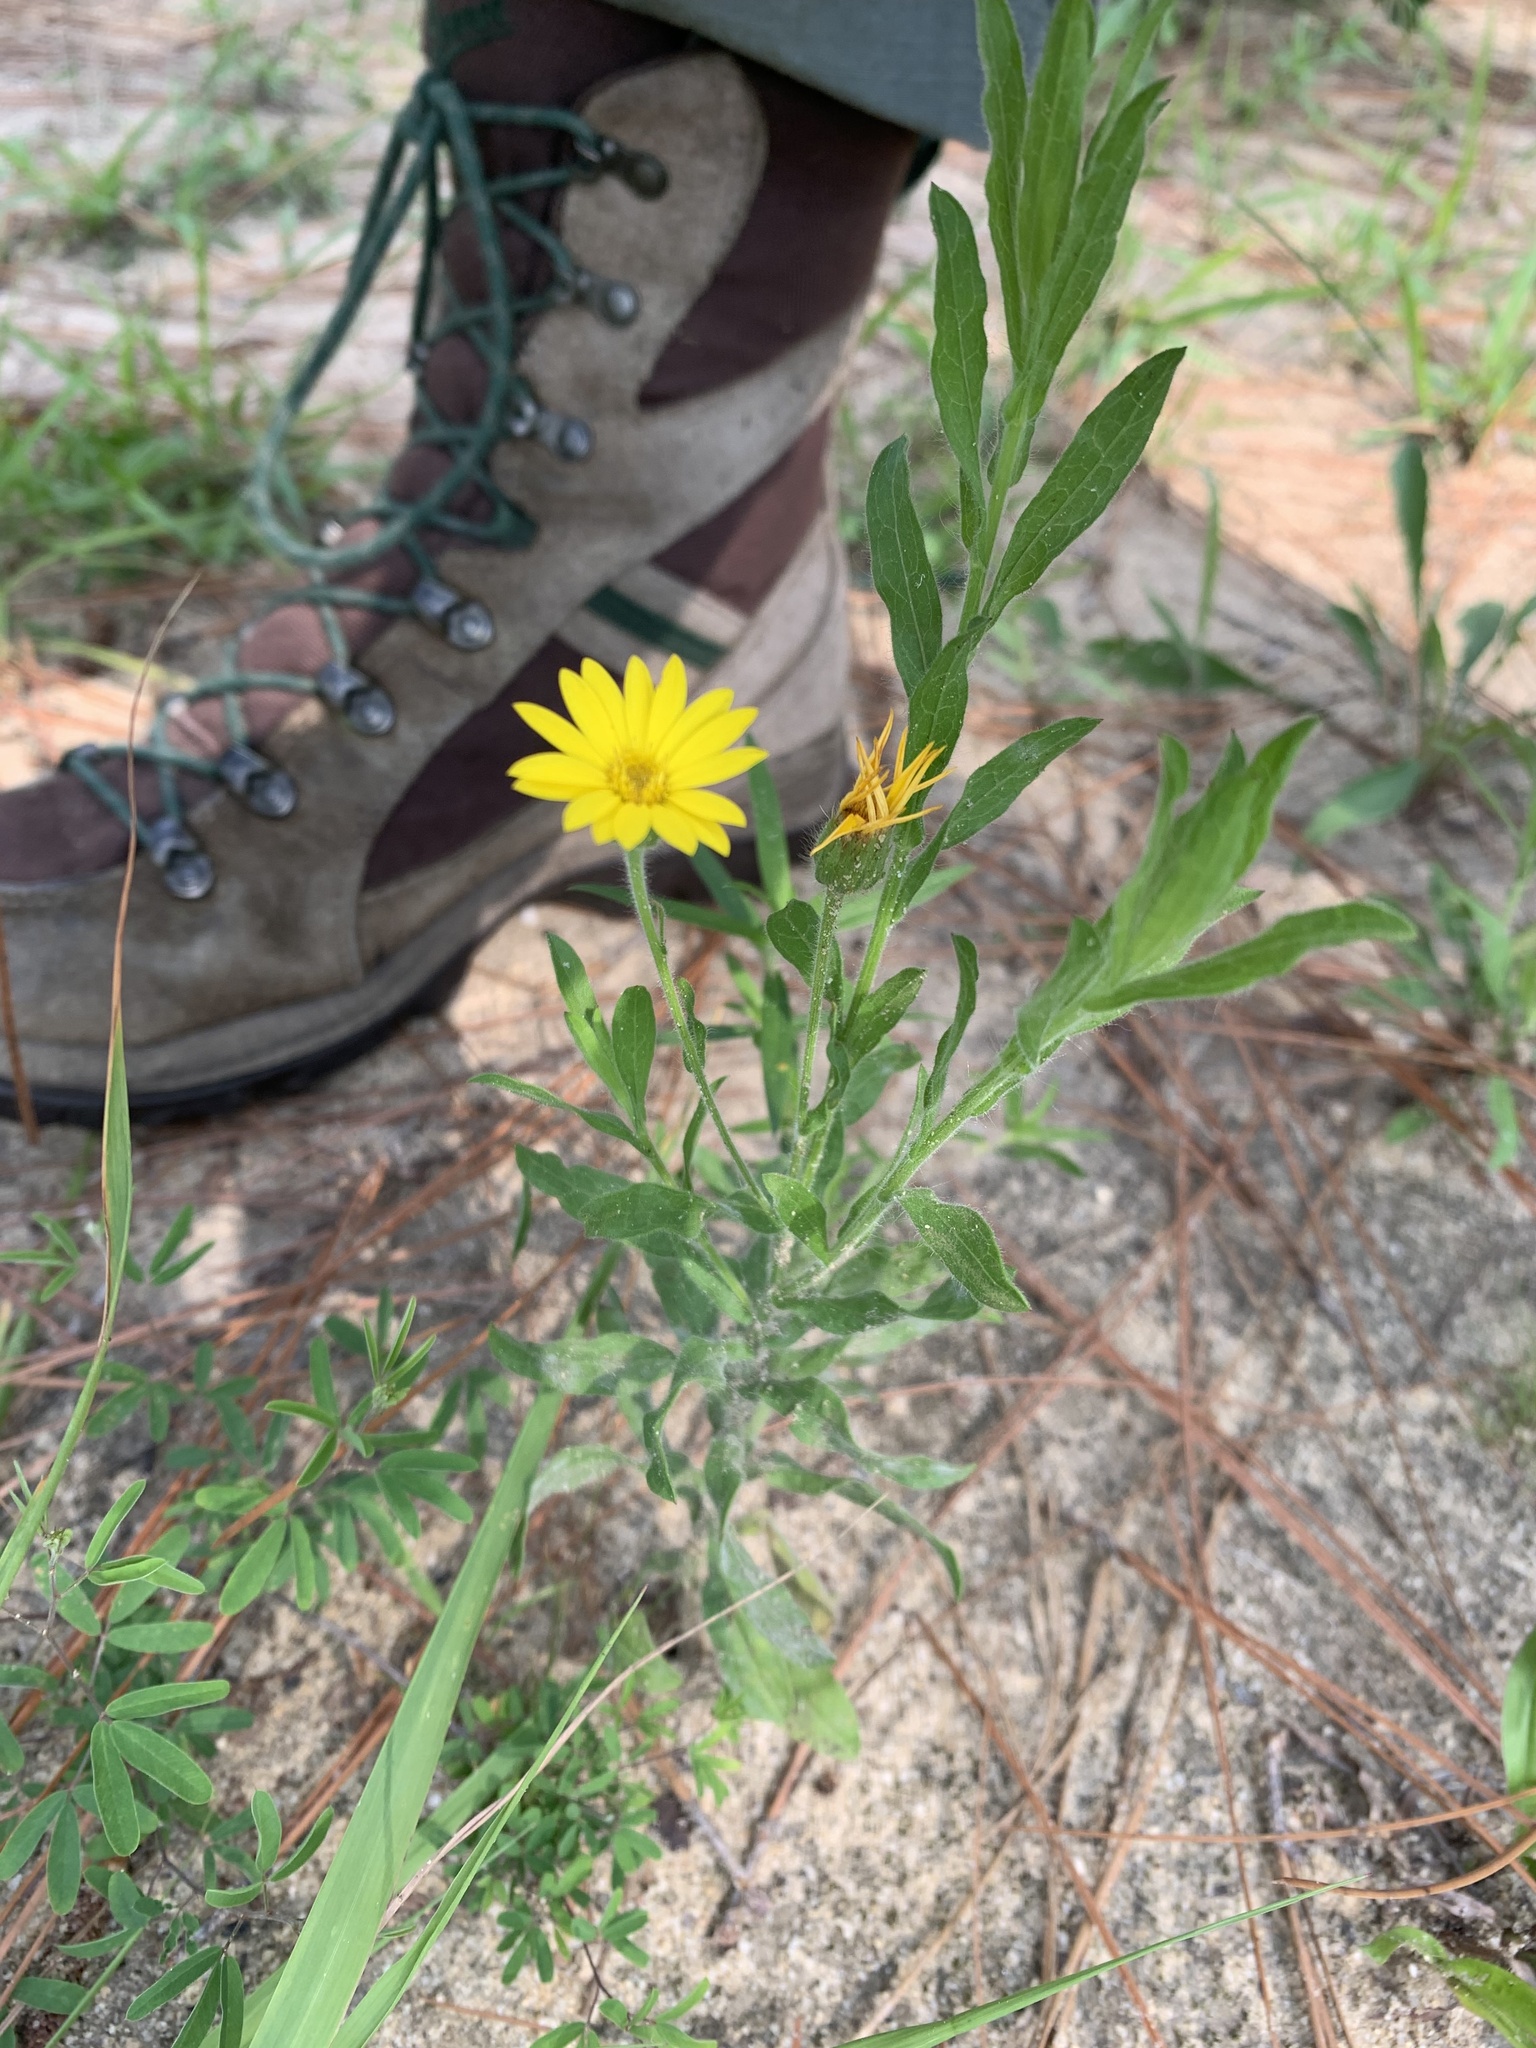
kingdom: Plantae
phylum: Tracheophyta
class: Magnoliopsida
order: Asterales
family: Asteraceae
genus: Bradburia
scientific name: Bradburia pilosa
